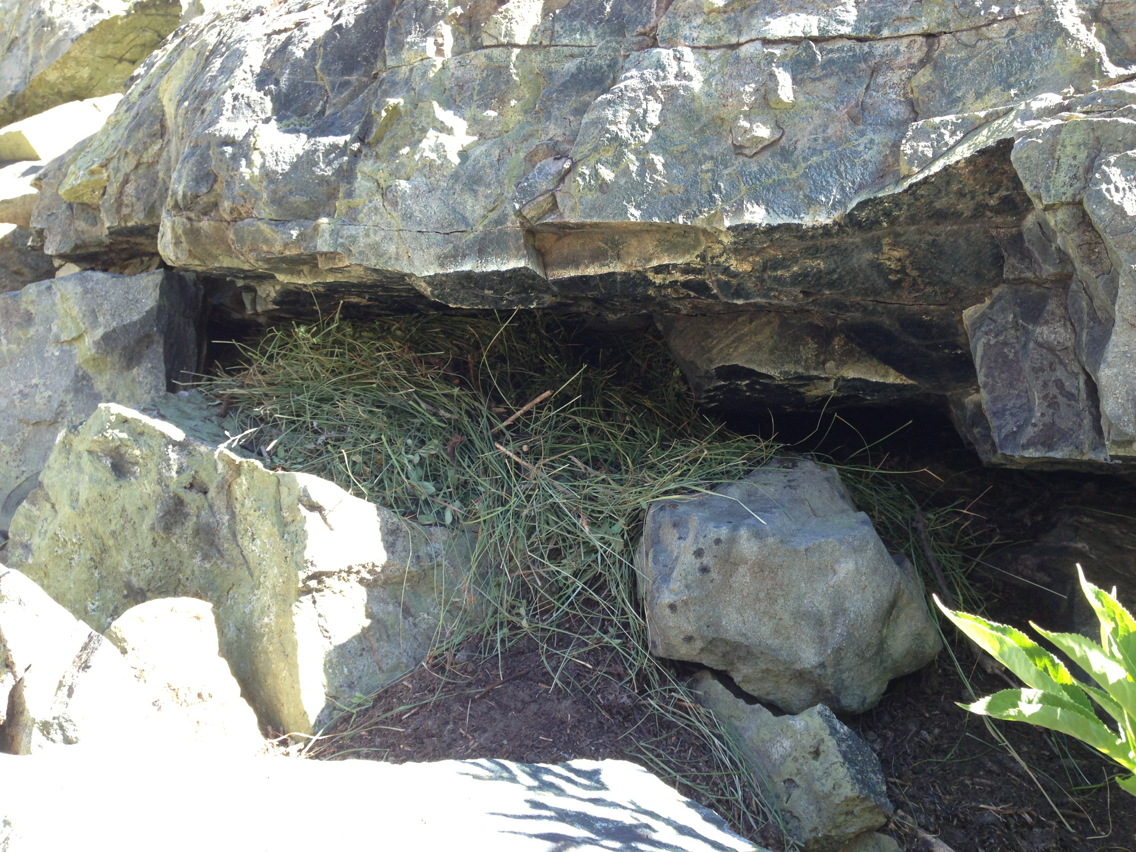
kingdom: Animalia
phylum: Chordata
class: Mammalia
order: Lagomorpha
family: Ochotonidae
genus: Ochotona
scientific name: Ochotona princeps
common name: American pika
